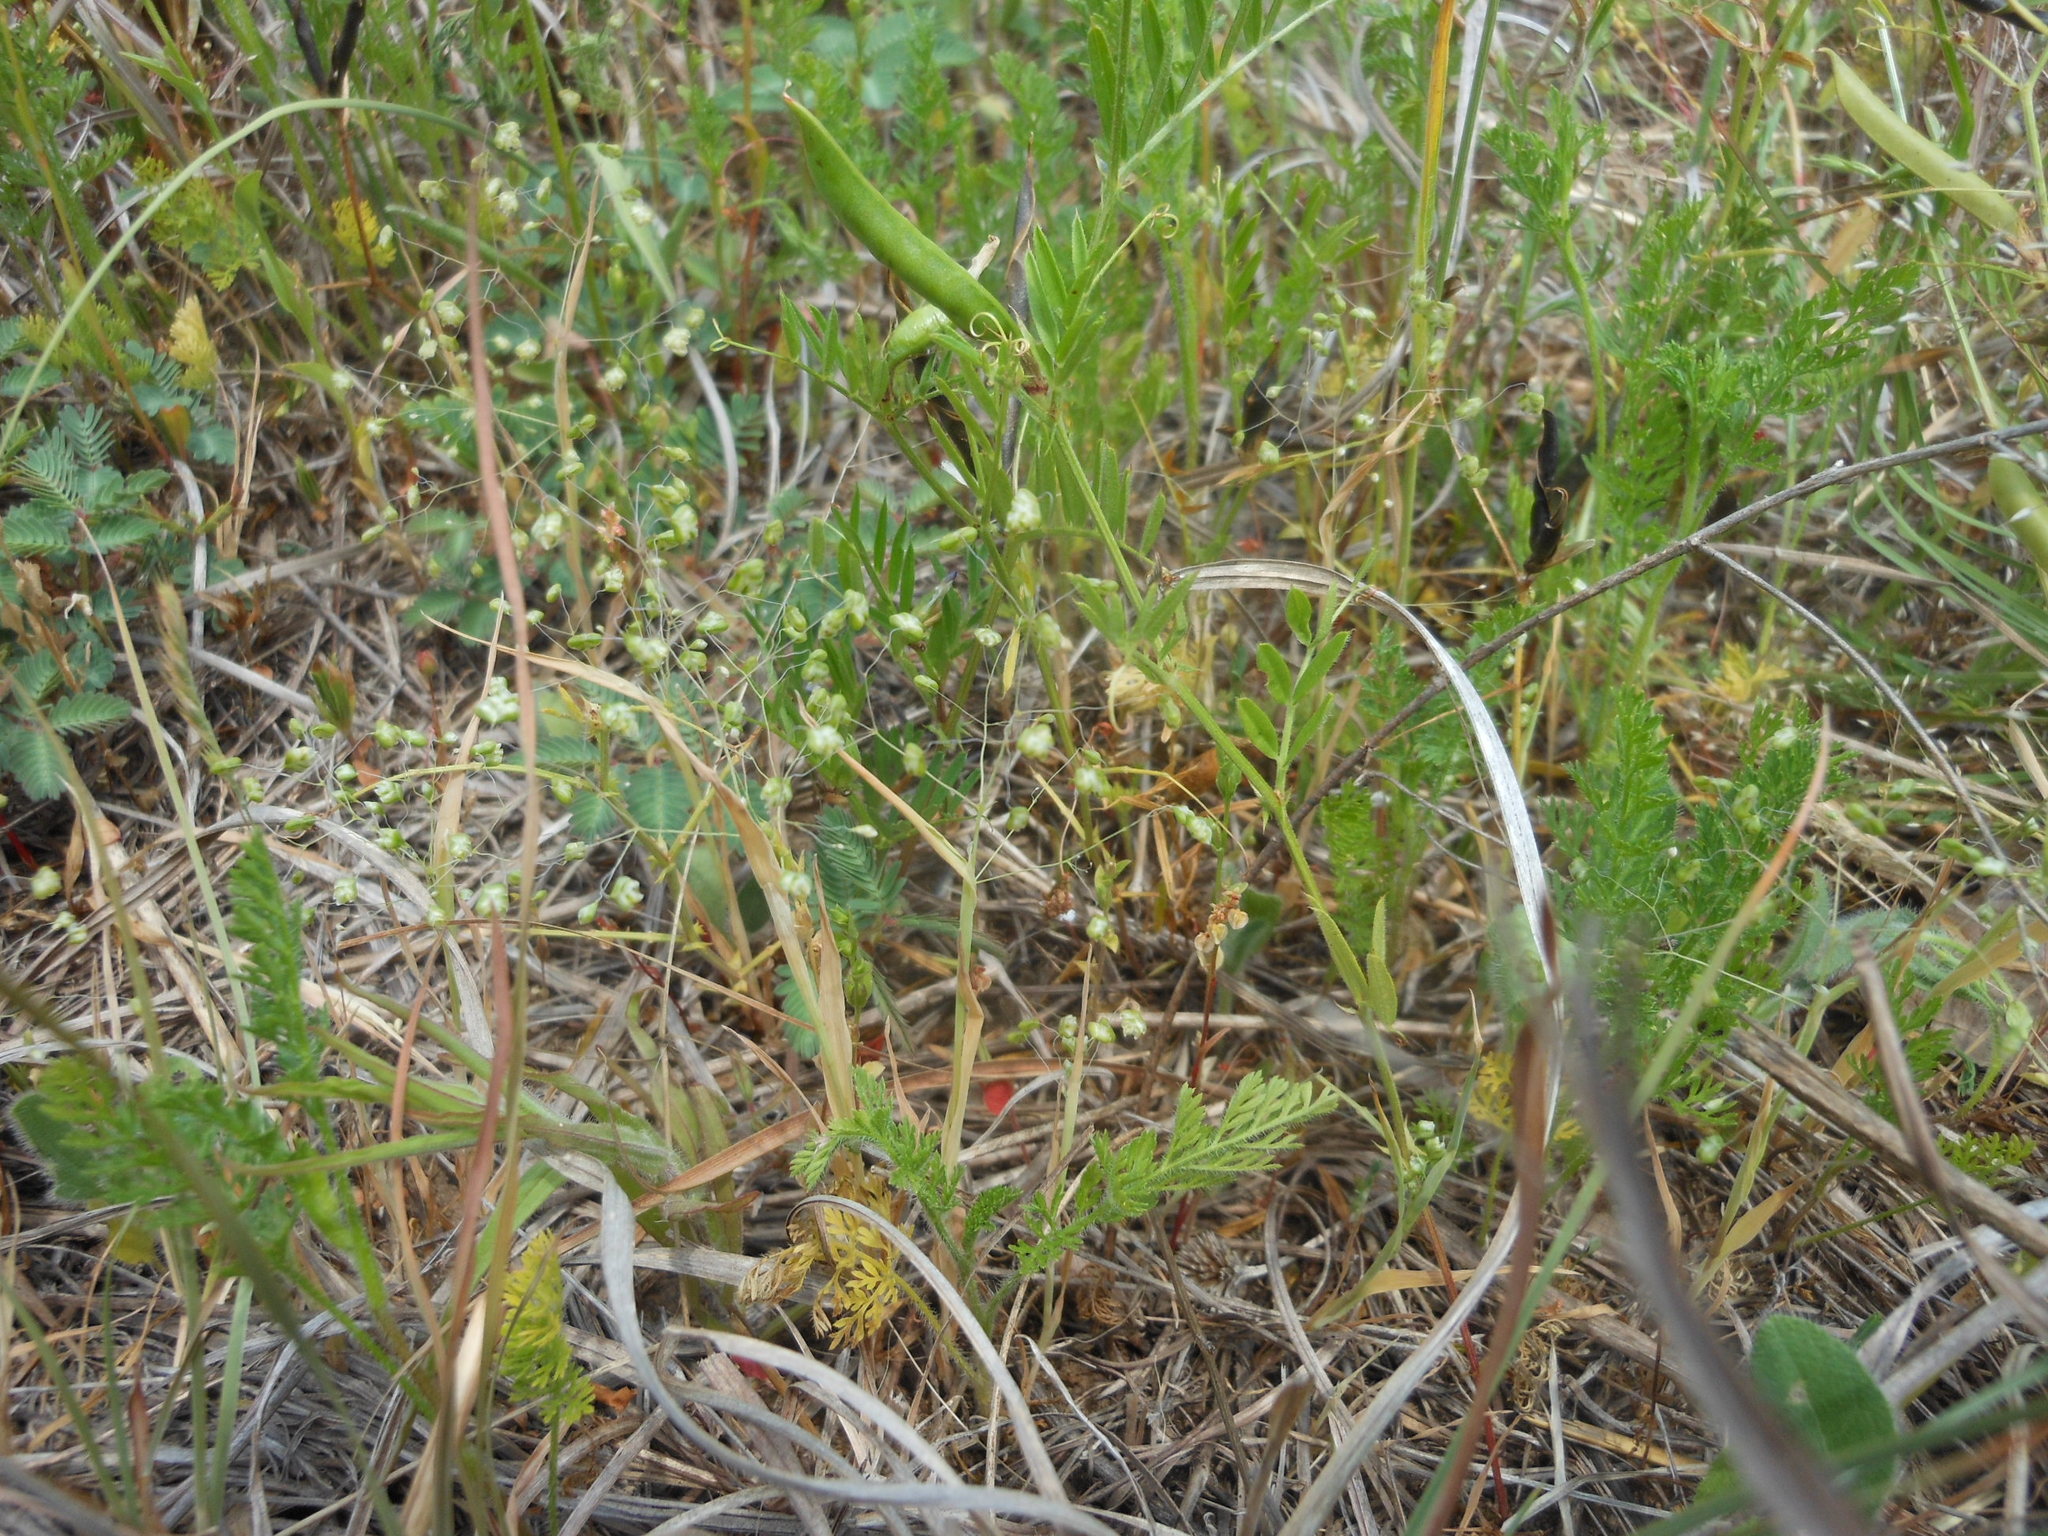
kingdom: Plantae
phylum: Tracheophyta
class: Liliopsida
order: Poales
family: Poaceae
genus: Briza
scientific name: Briza minor
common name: Lesser quaking-grass
